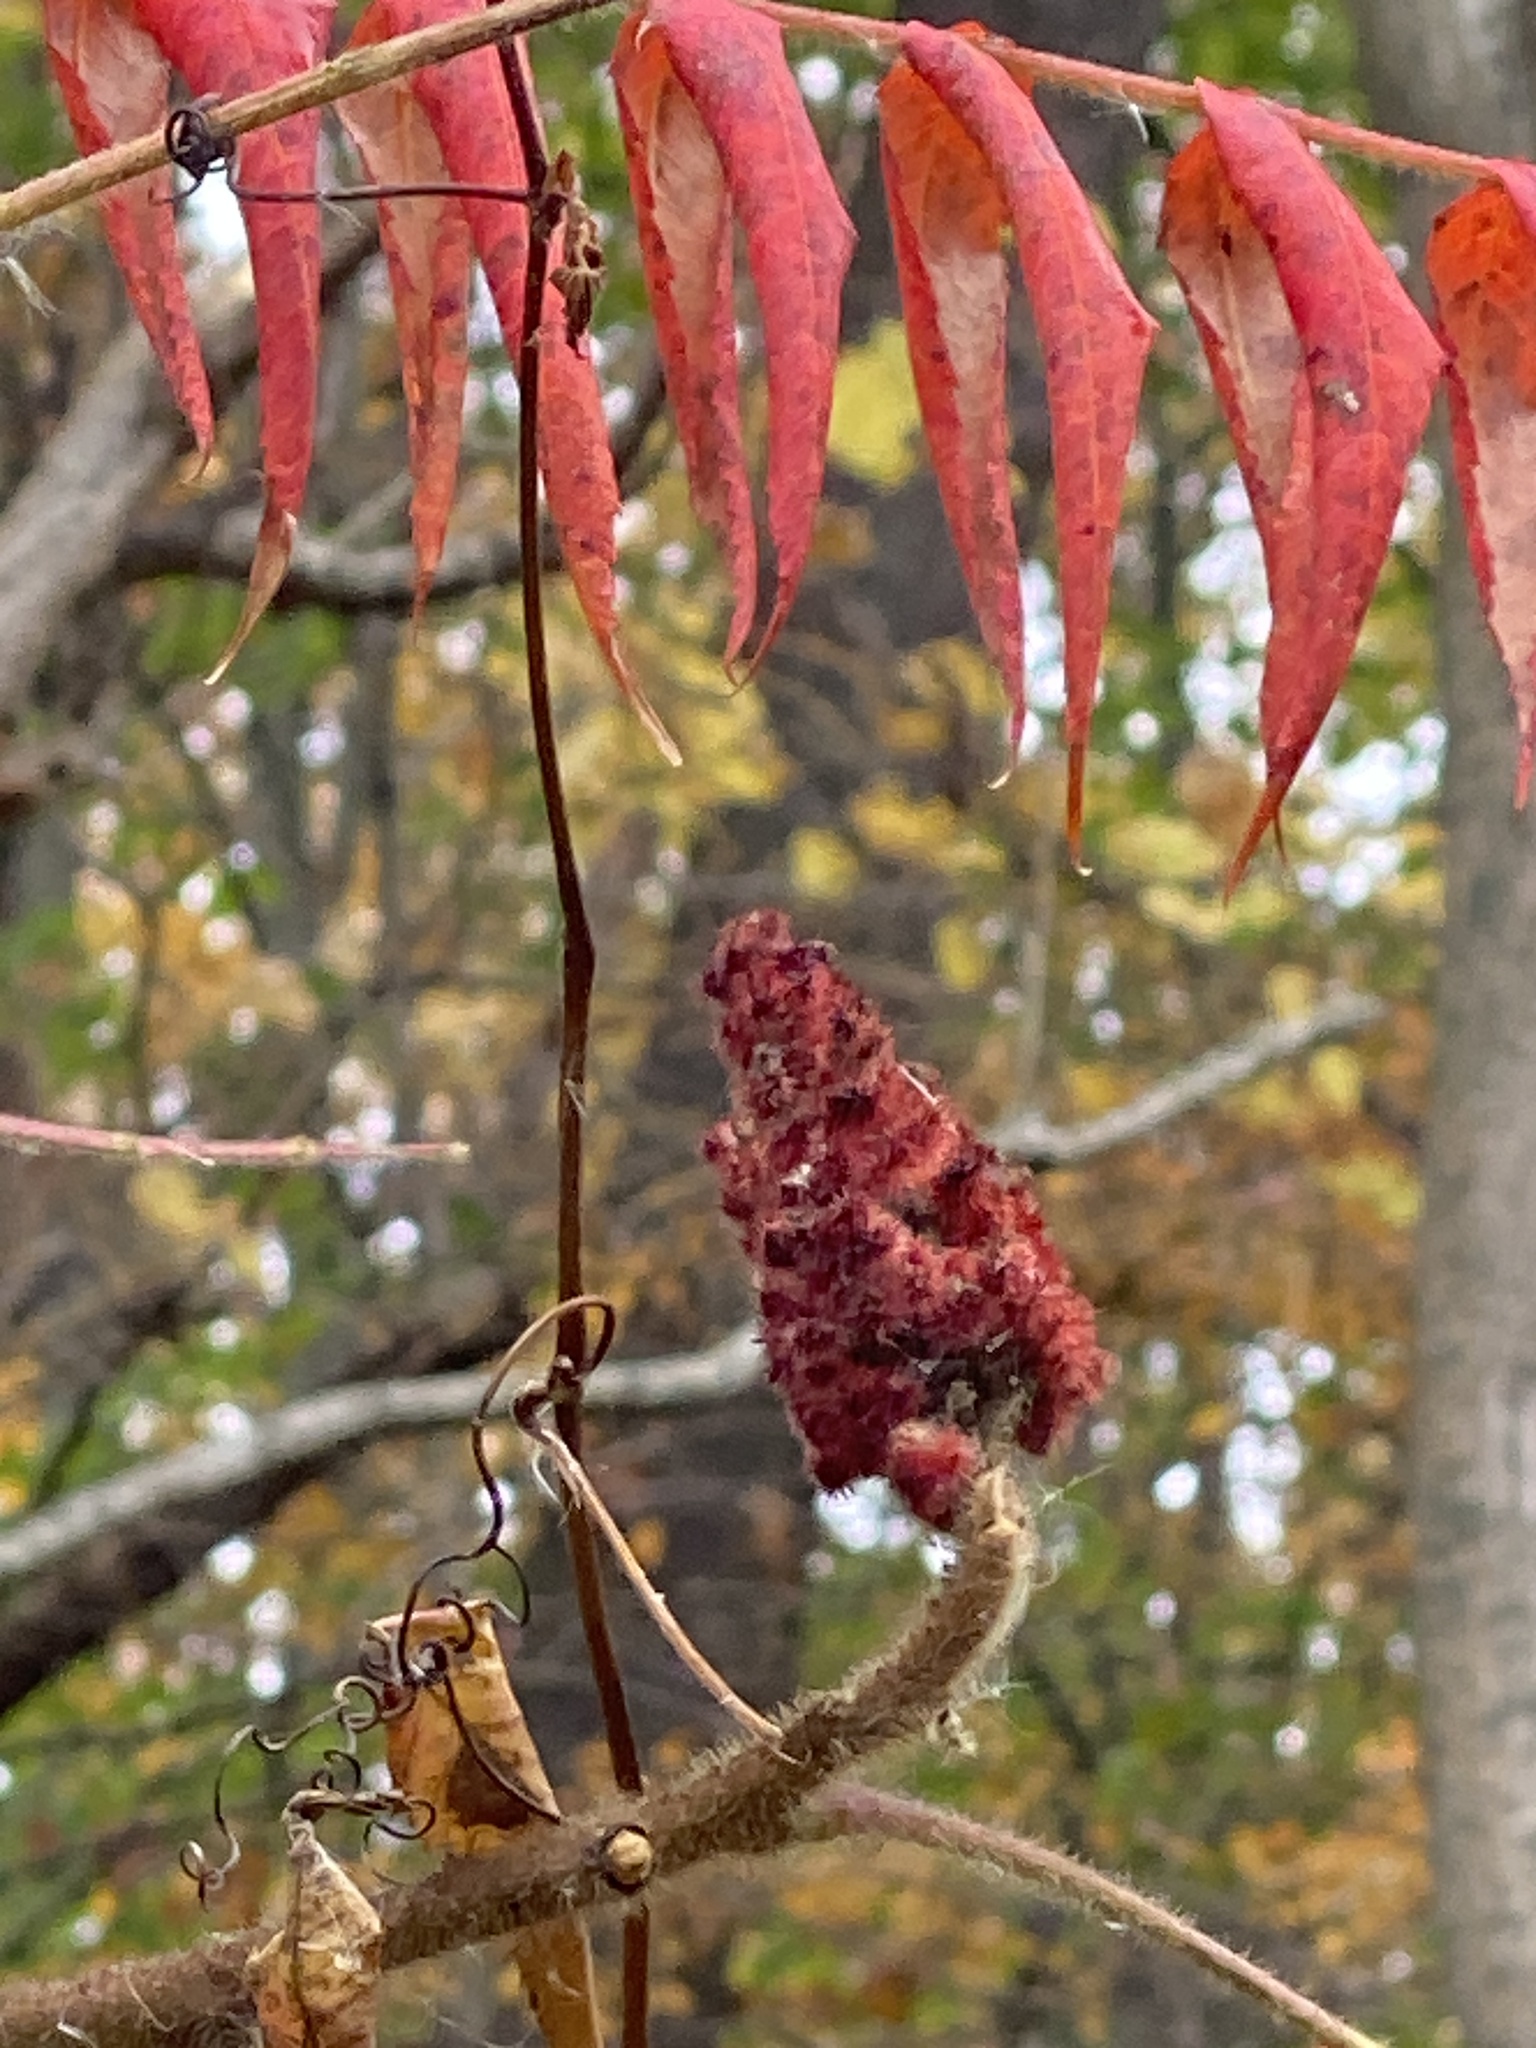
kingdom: Plantae
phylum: Tracheophyta
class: Magnoliopsida
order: Sapindales
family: Anacardiaceae
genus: Rhus
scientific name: Rhus typhina
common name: Staghorn sumac
